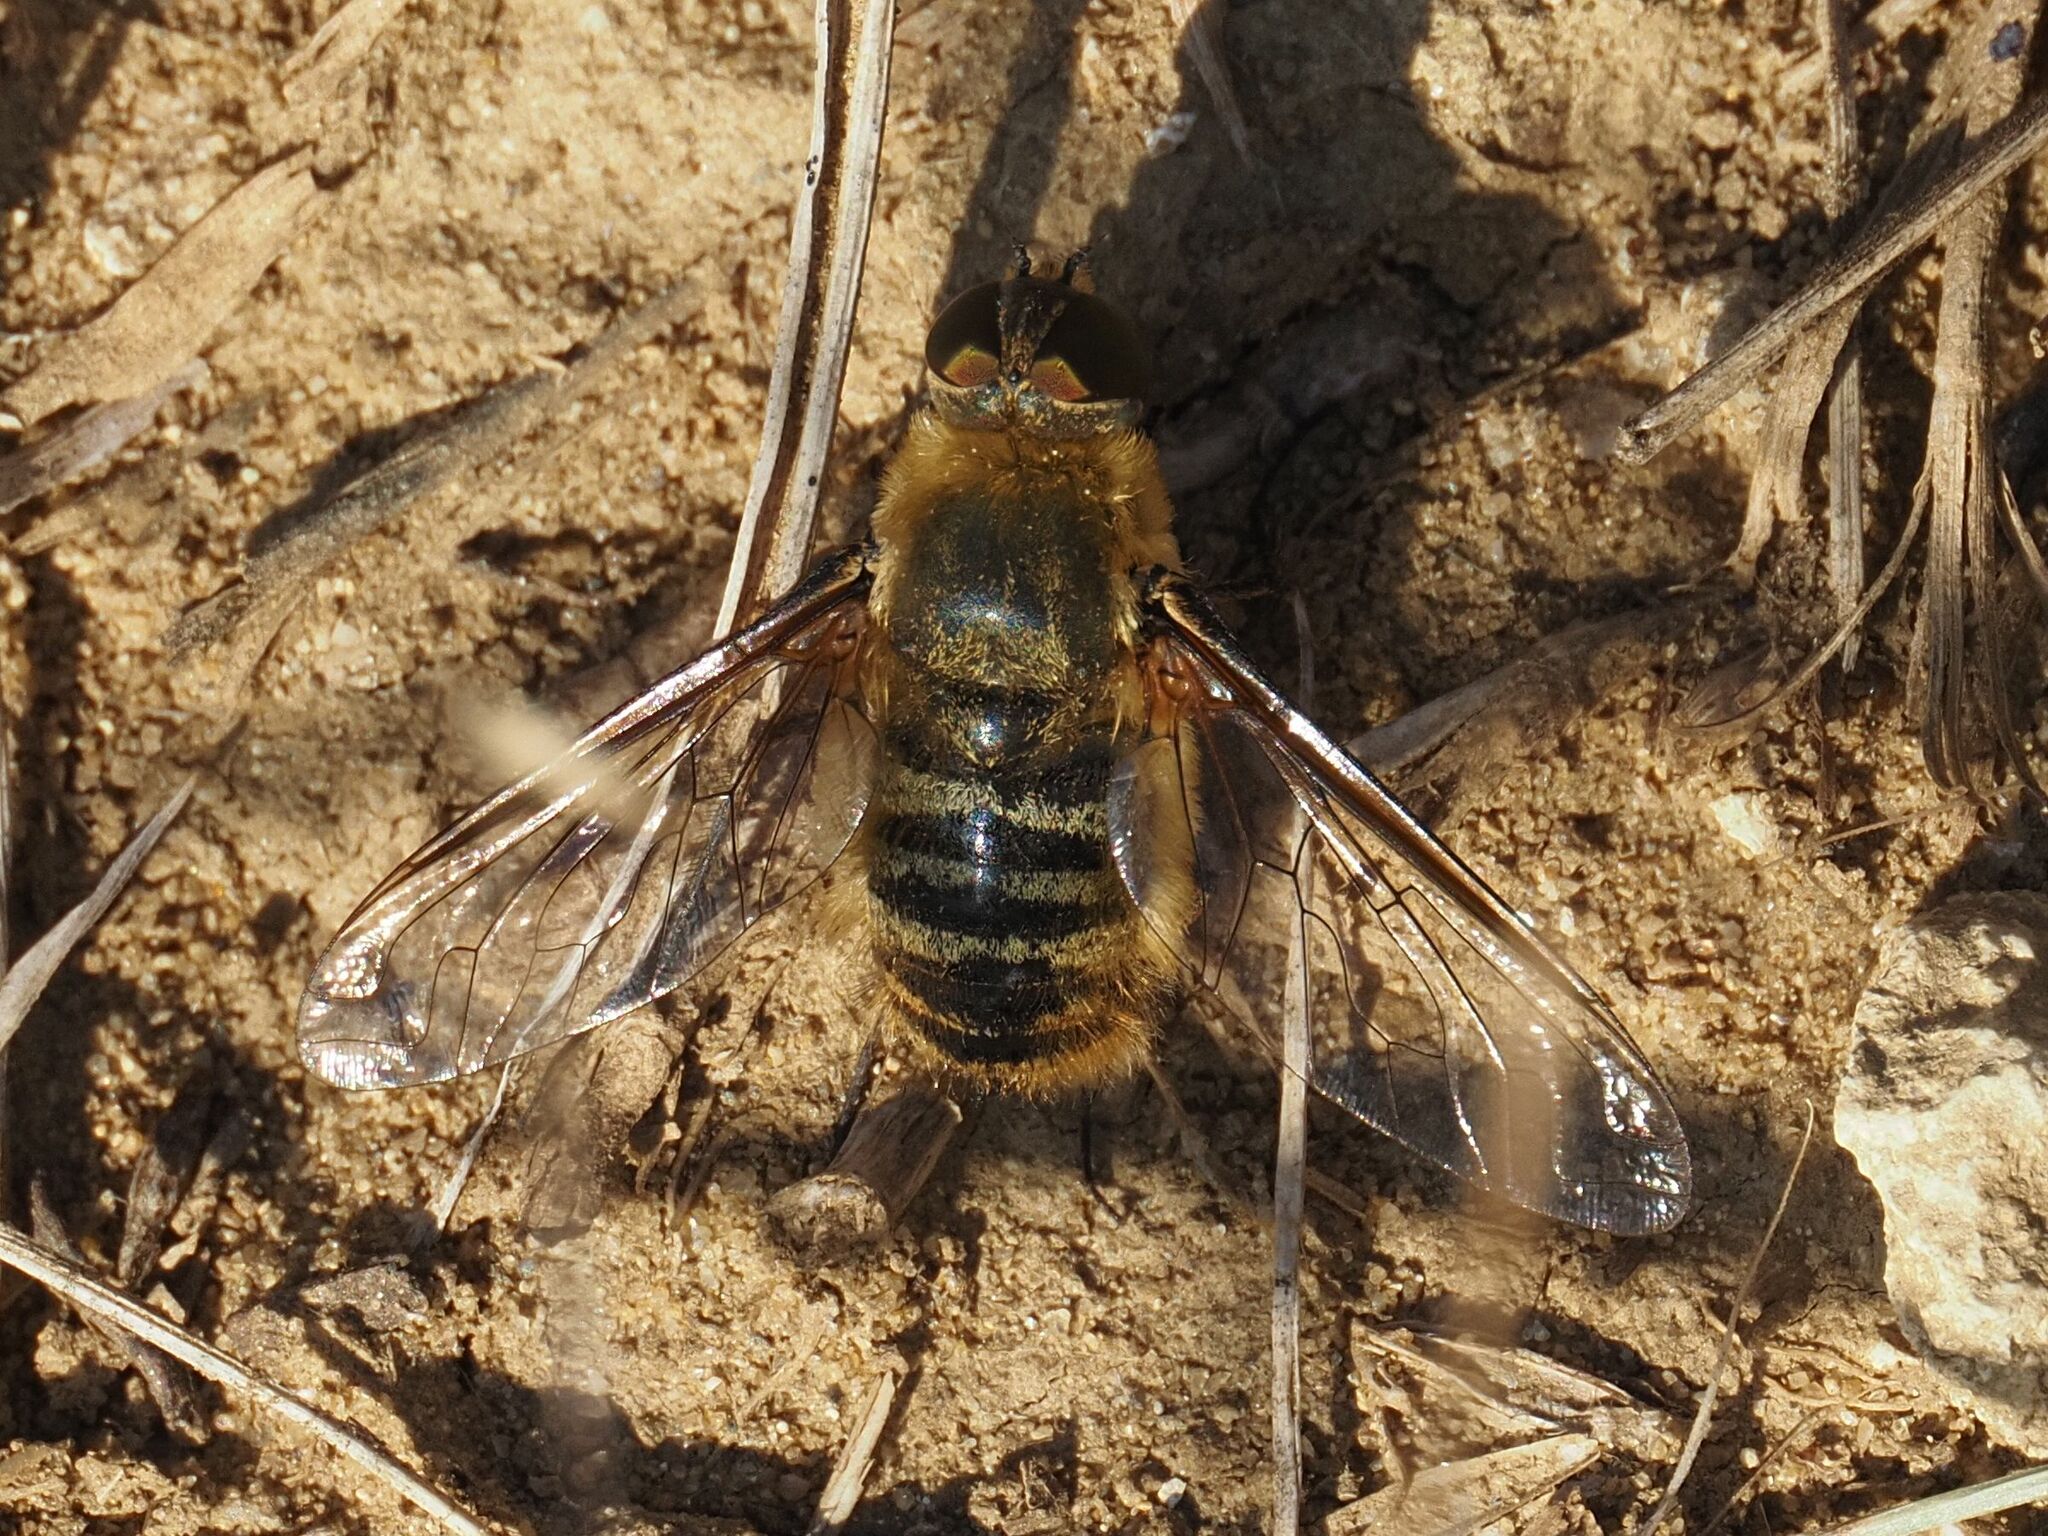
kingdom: Animalia
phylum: Arthropoda
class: Insecta
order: Diptera
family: Bombyliidae
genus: Villa
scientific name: Villa hottentotta
